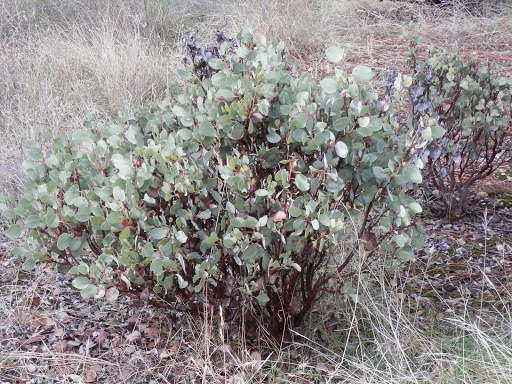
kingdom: Plantae
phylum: Tracheophyta
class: Magnoliopsida
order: Ericales
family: Ericaceae
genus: Arctostaphylos
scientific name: Arctostaphylos viscida
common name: White-leaf manzanita
